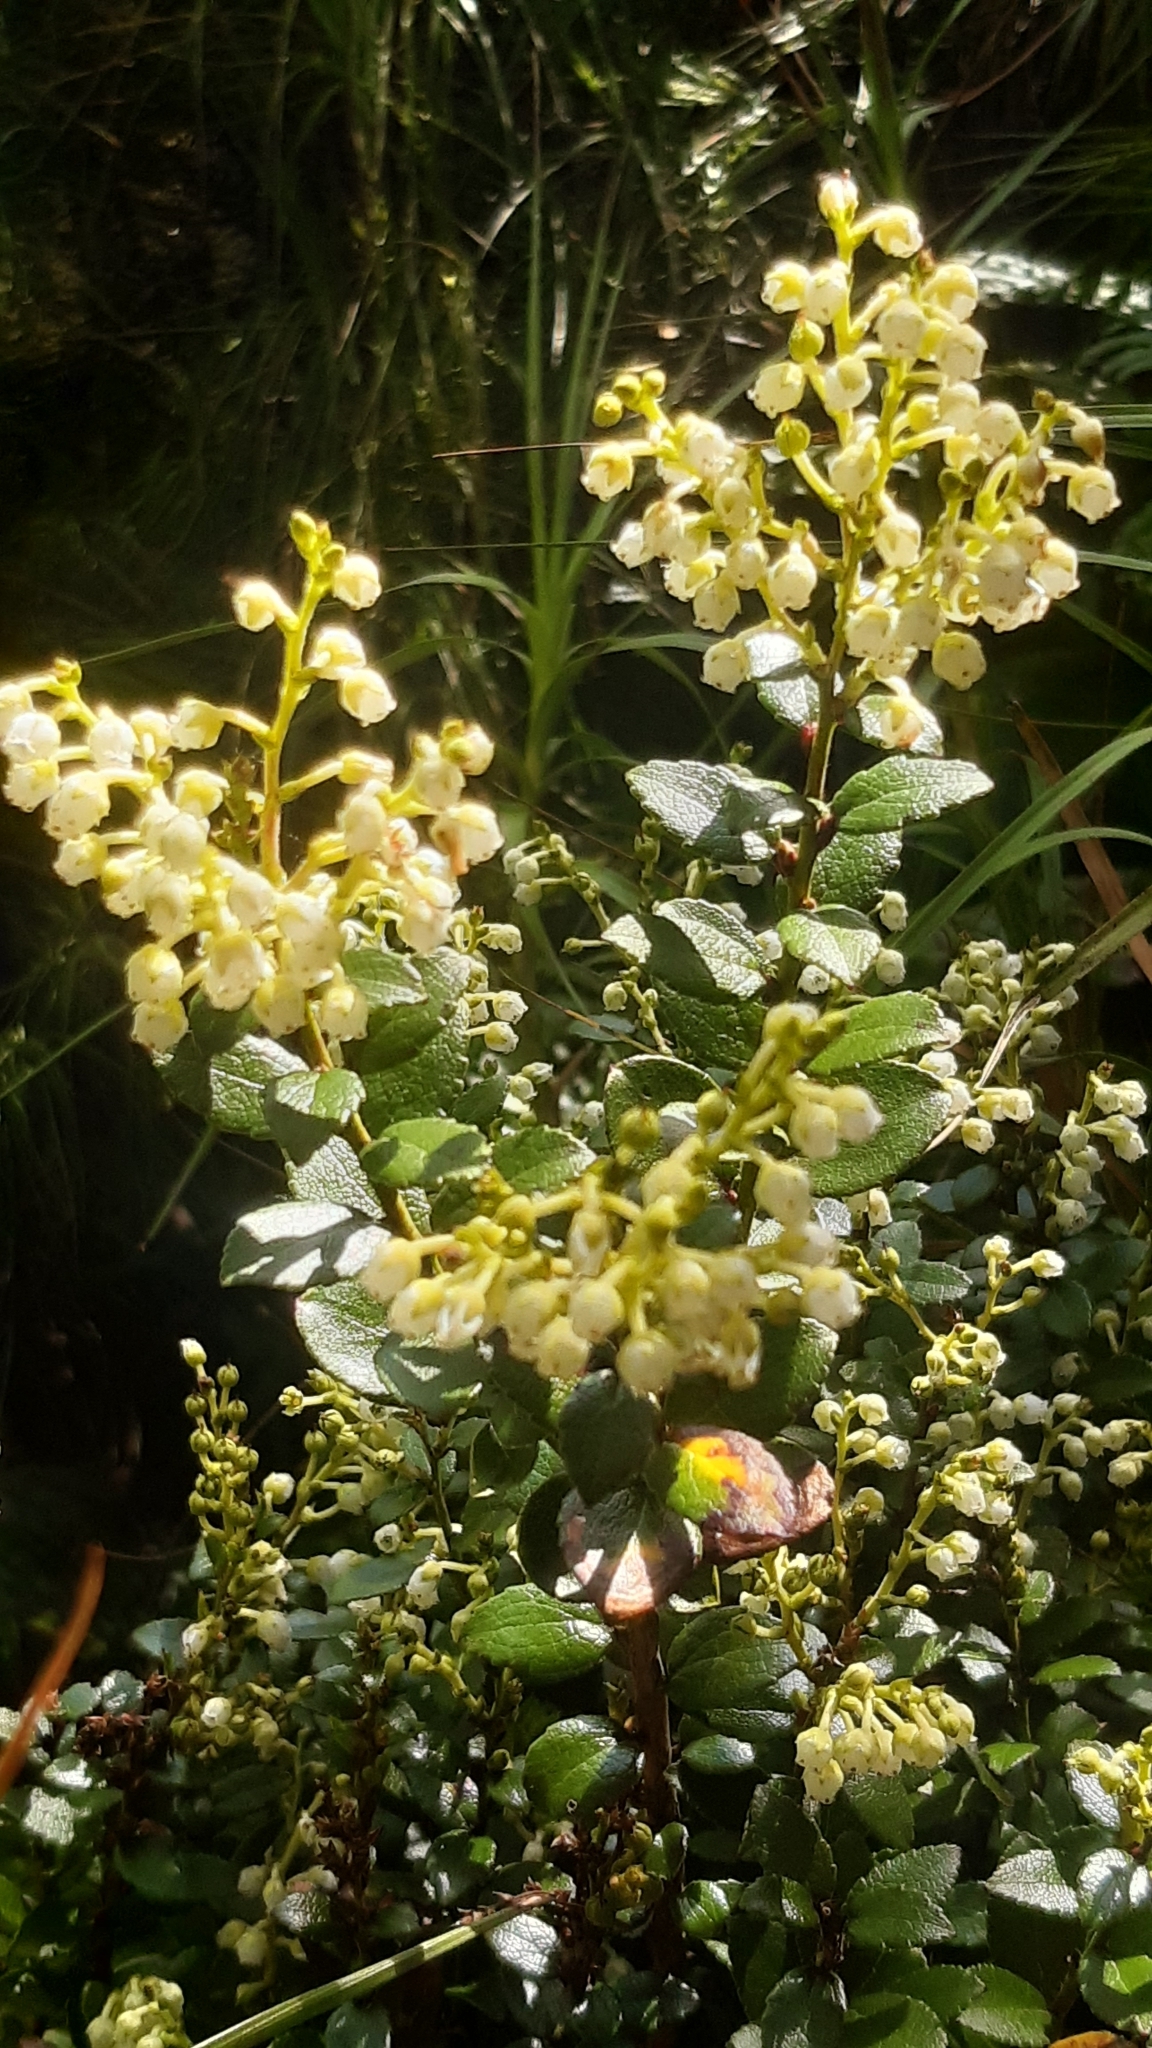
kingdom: Plantae
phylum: Tracheophyta
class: Magnoliopsida
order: Ericales
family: Ericaceae
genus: Gaultheria
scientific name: Gaultheria crassa
